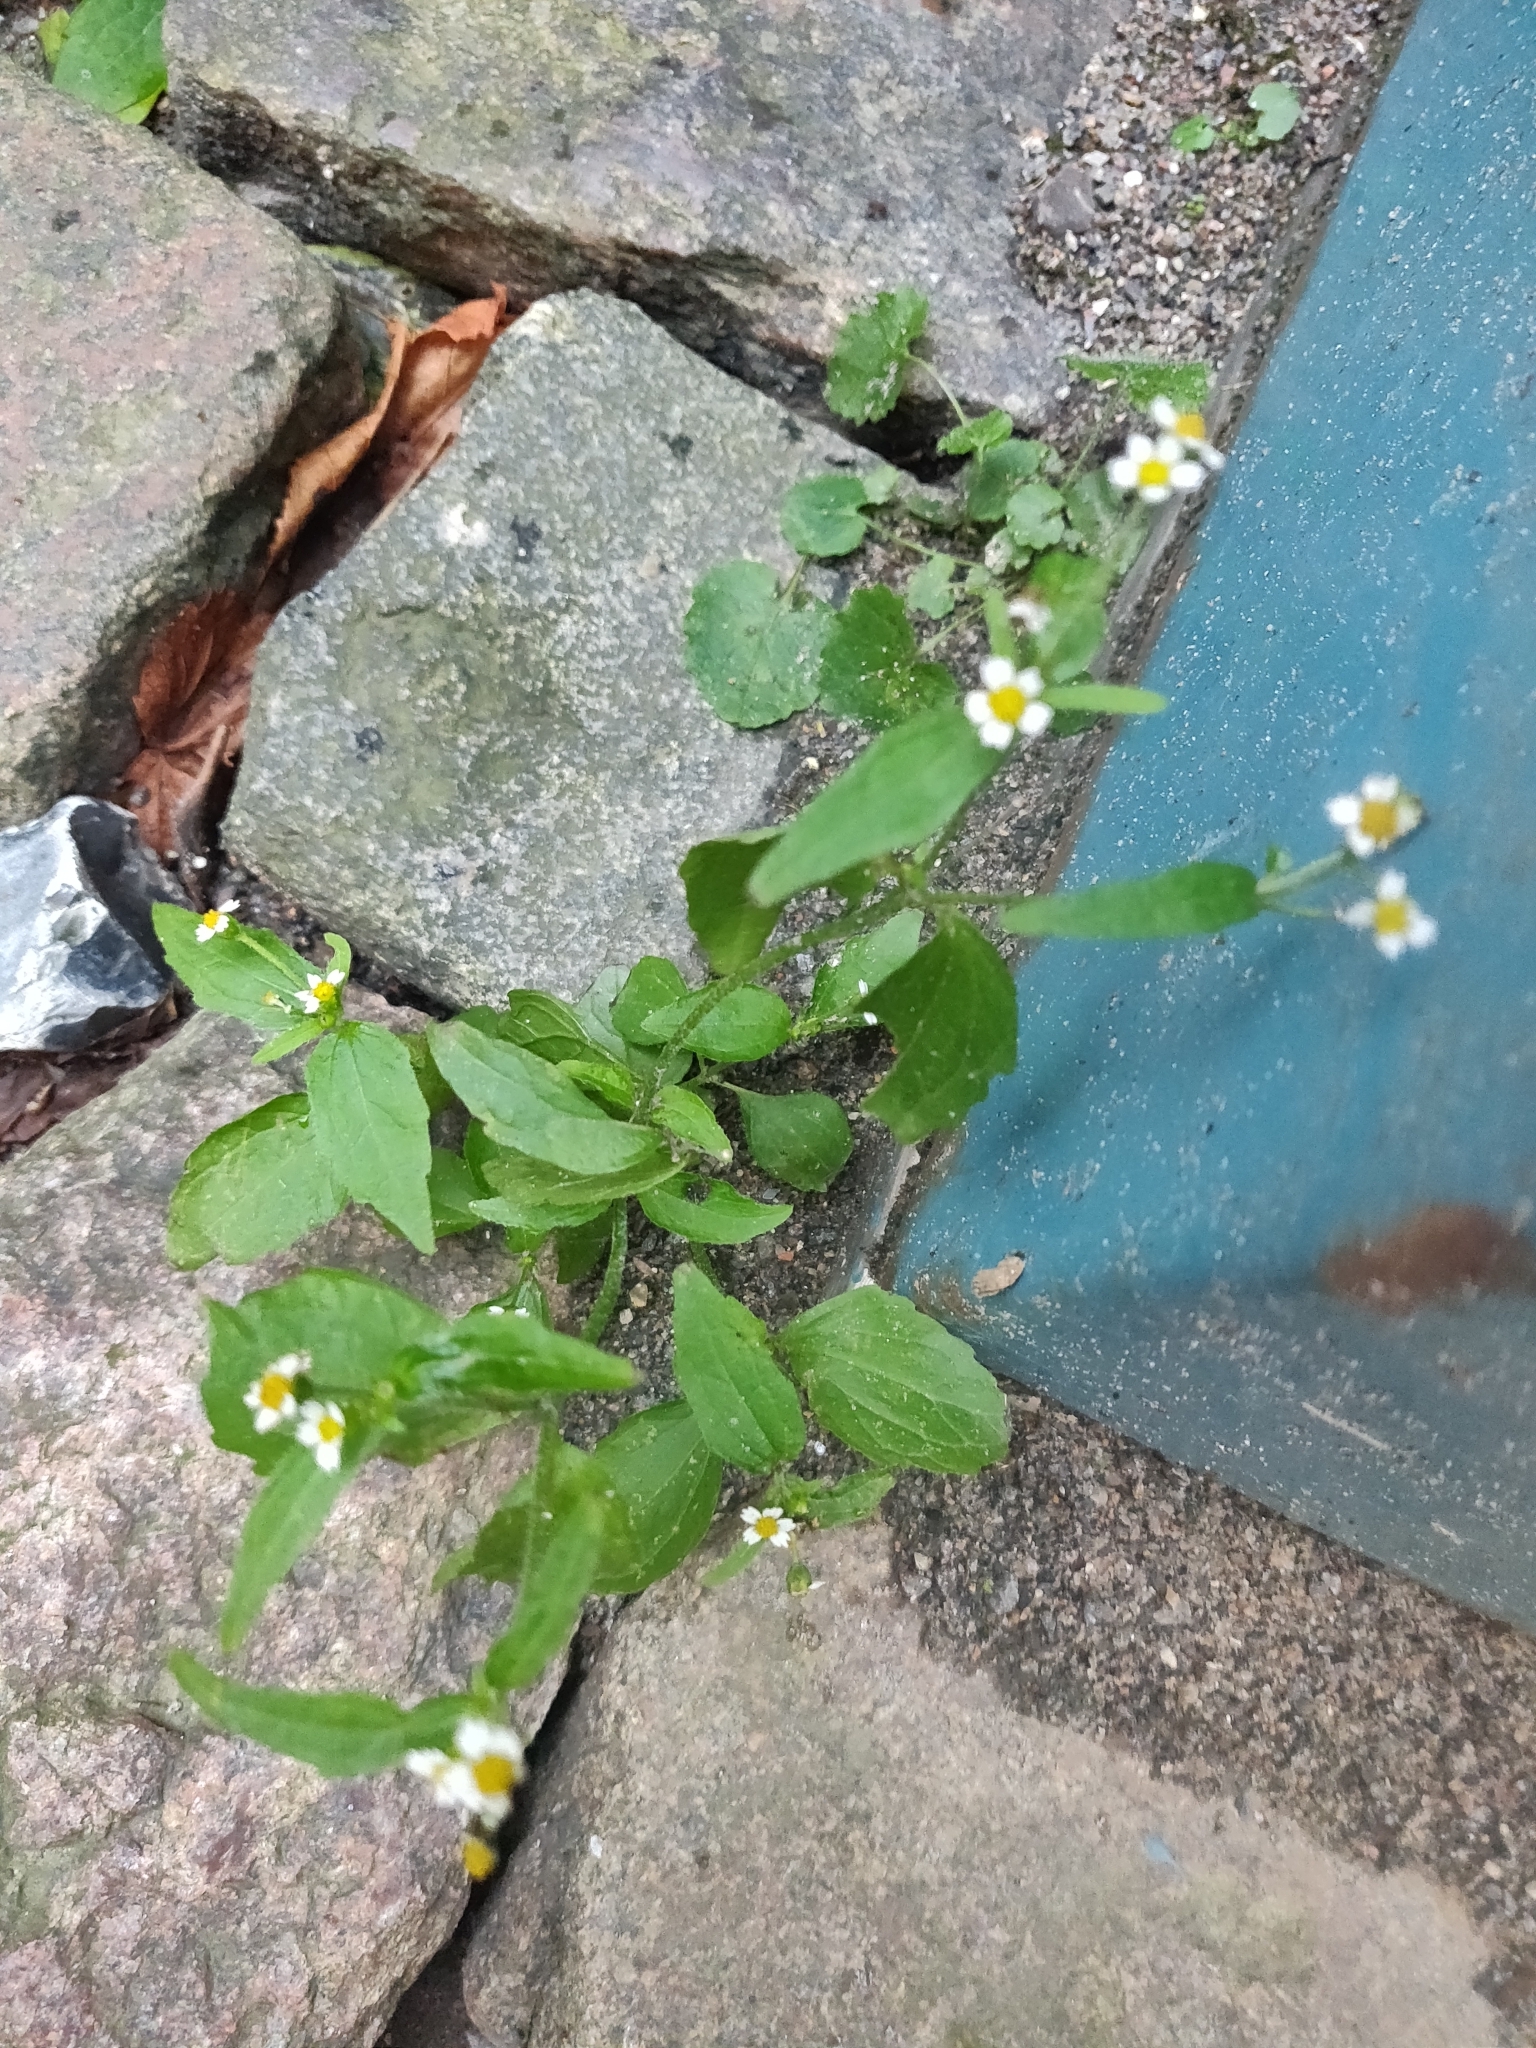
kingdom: Plantae
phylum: Tracheophyta
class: Magnoliopsida
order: Asterales
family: Asteraceae
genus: Galinsoga
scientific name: Galinsoga quadriradiata
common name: Shaggy soldier
